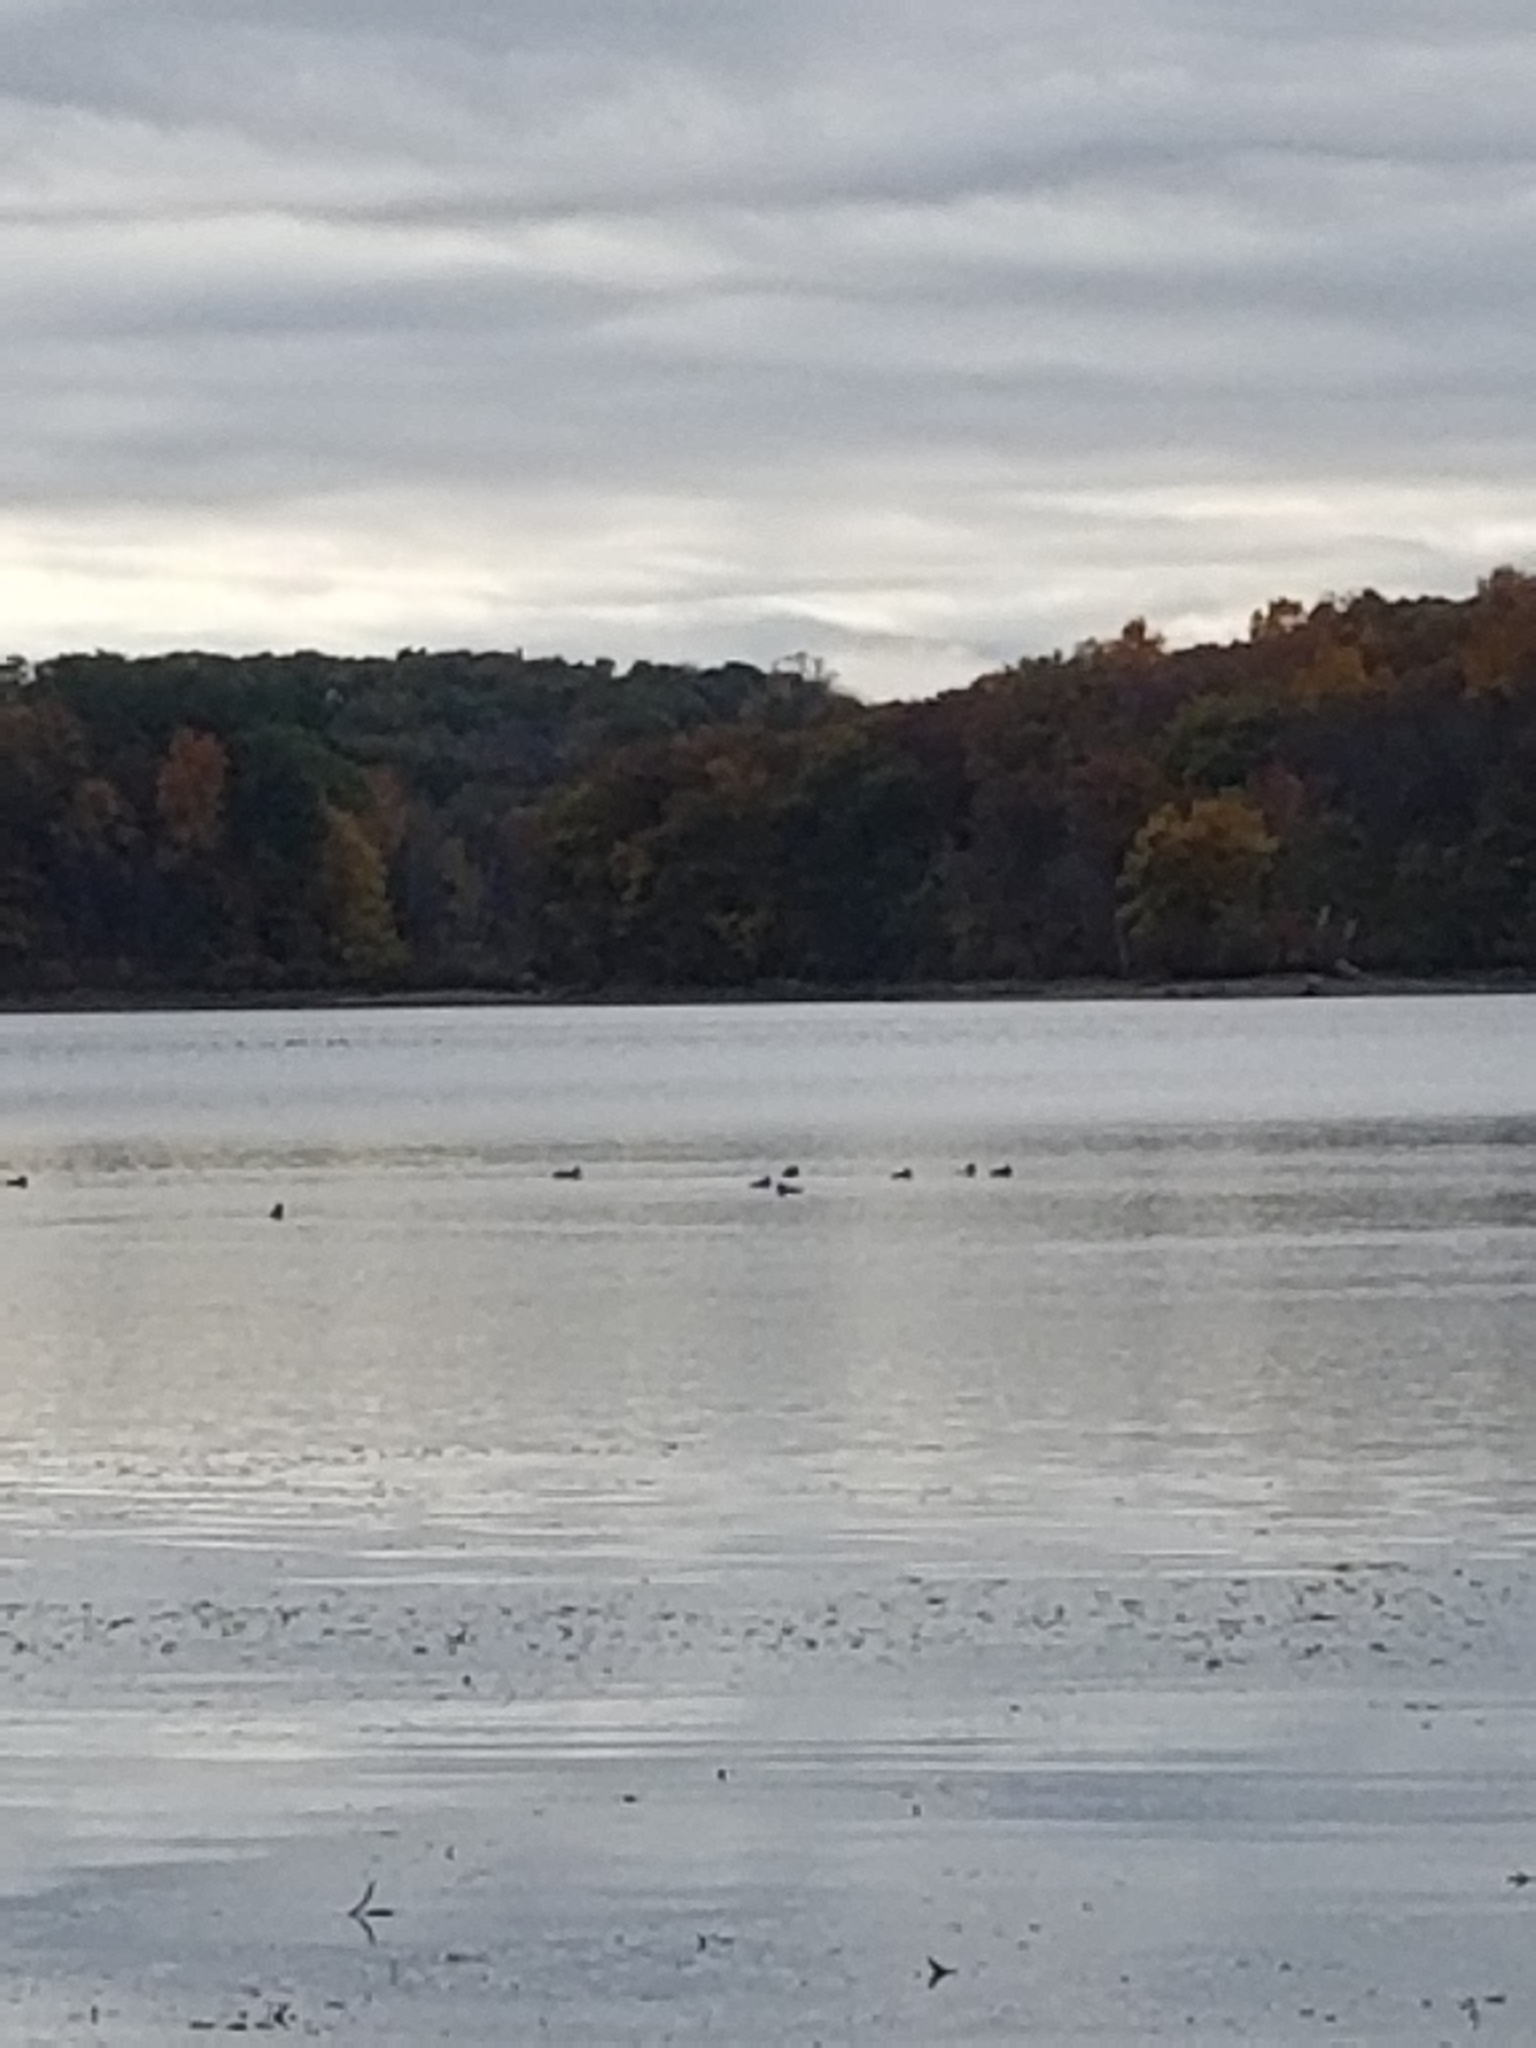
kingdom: Animalia
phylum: Chordata
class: Aves
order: Anseriformes
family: Anatidae
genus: Anas
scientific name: Anas platyrhynchos
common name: Mallard
